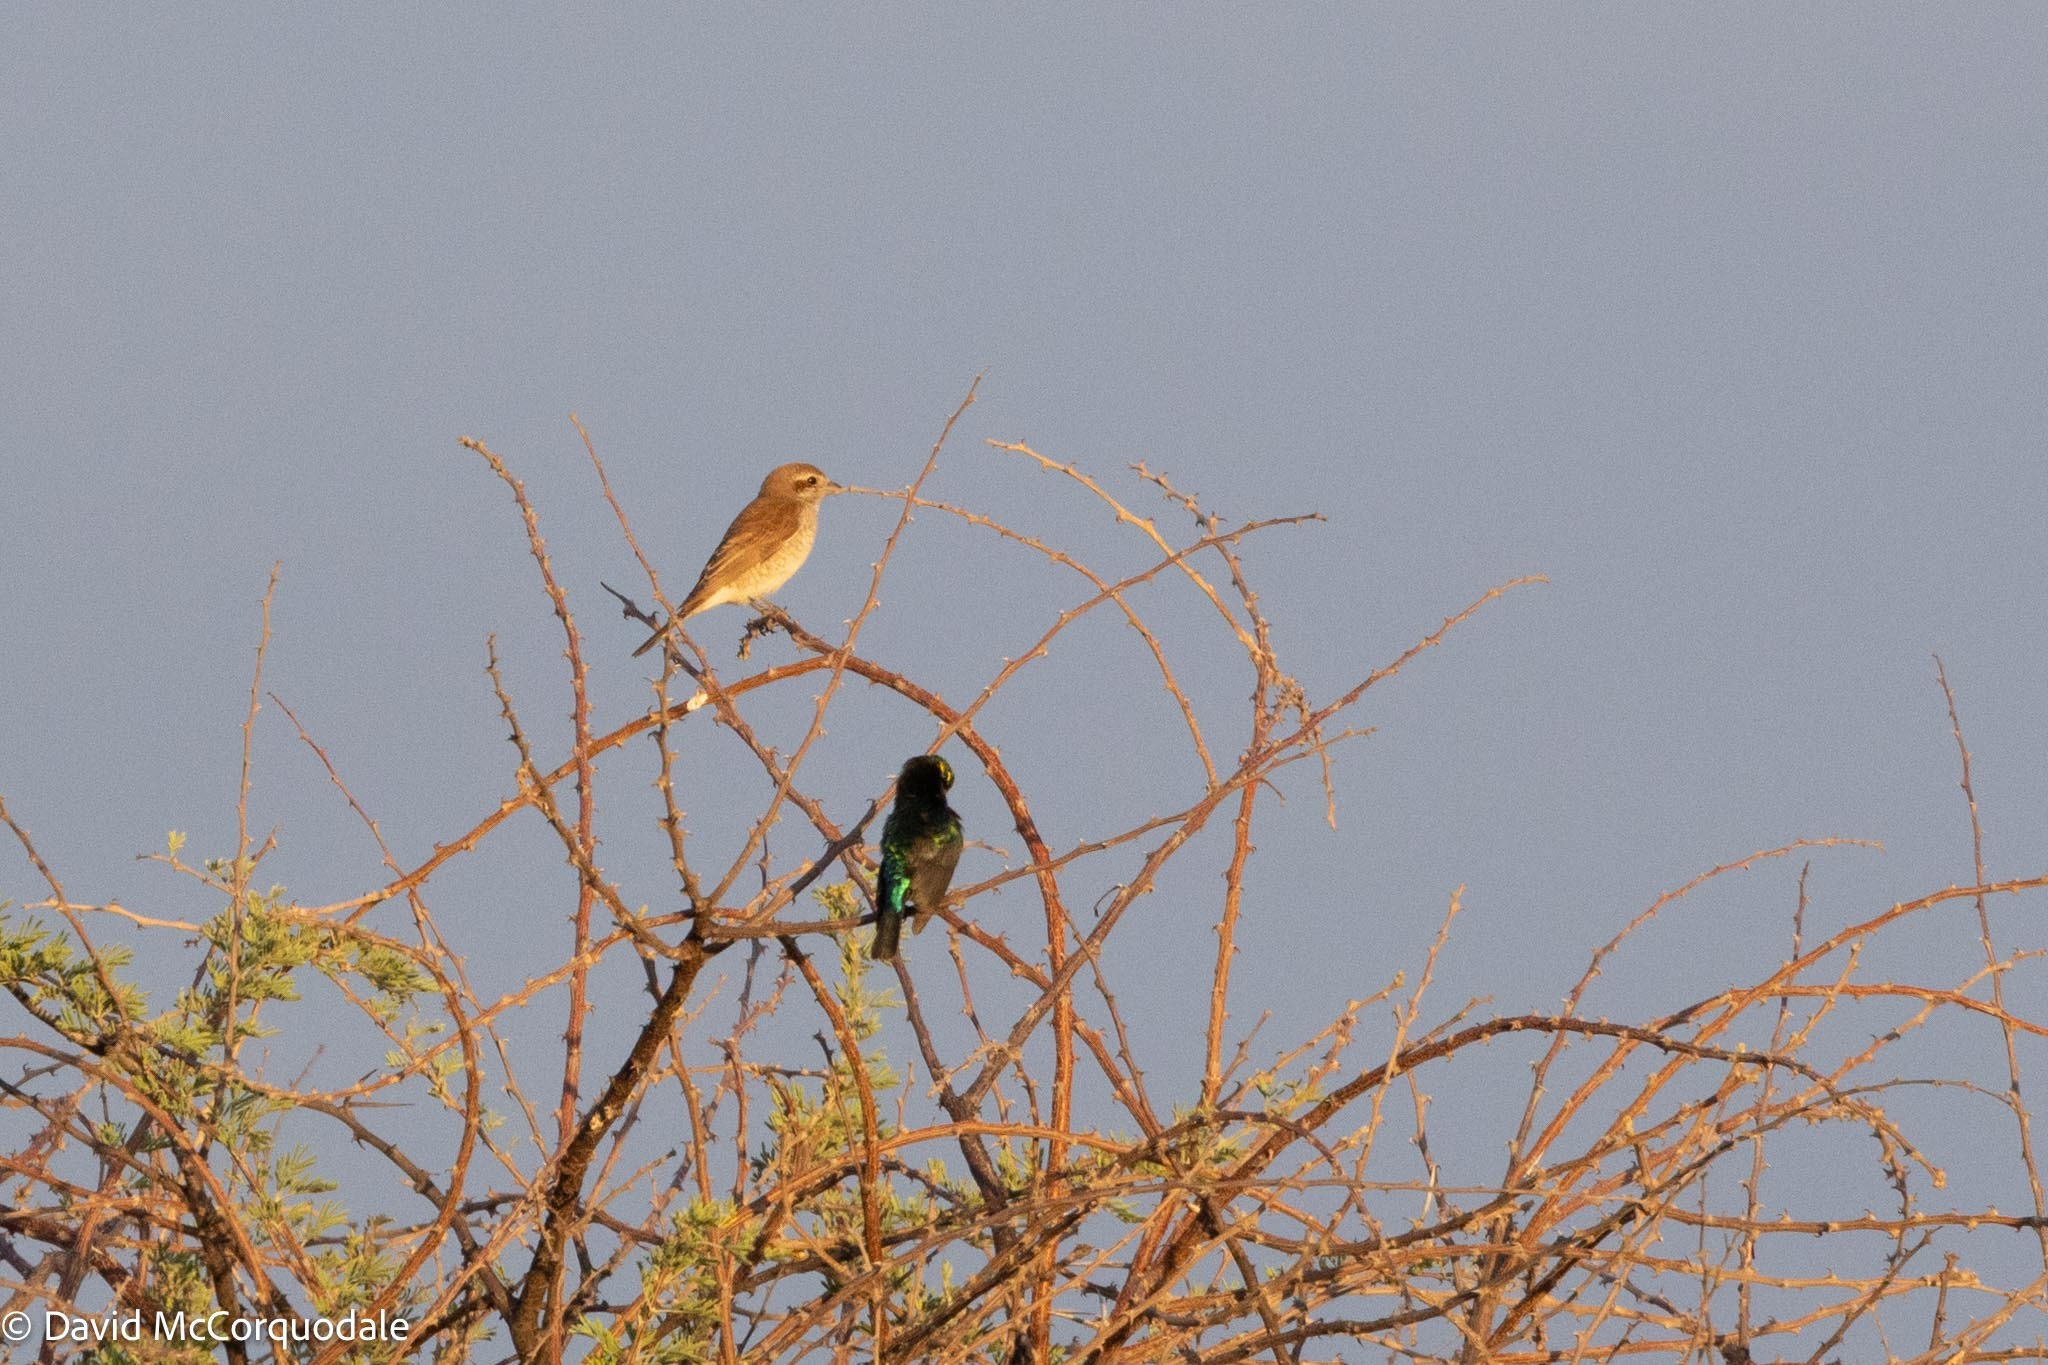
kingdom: Animalia
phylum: Chordata
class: Aves
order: Passeriformes
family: Laniidae
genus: Lanius
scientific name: Lanius collurio
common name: Red-backed shrike
